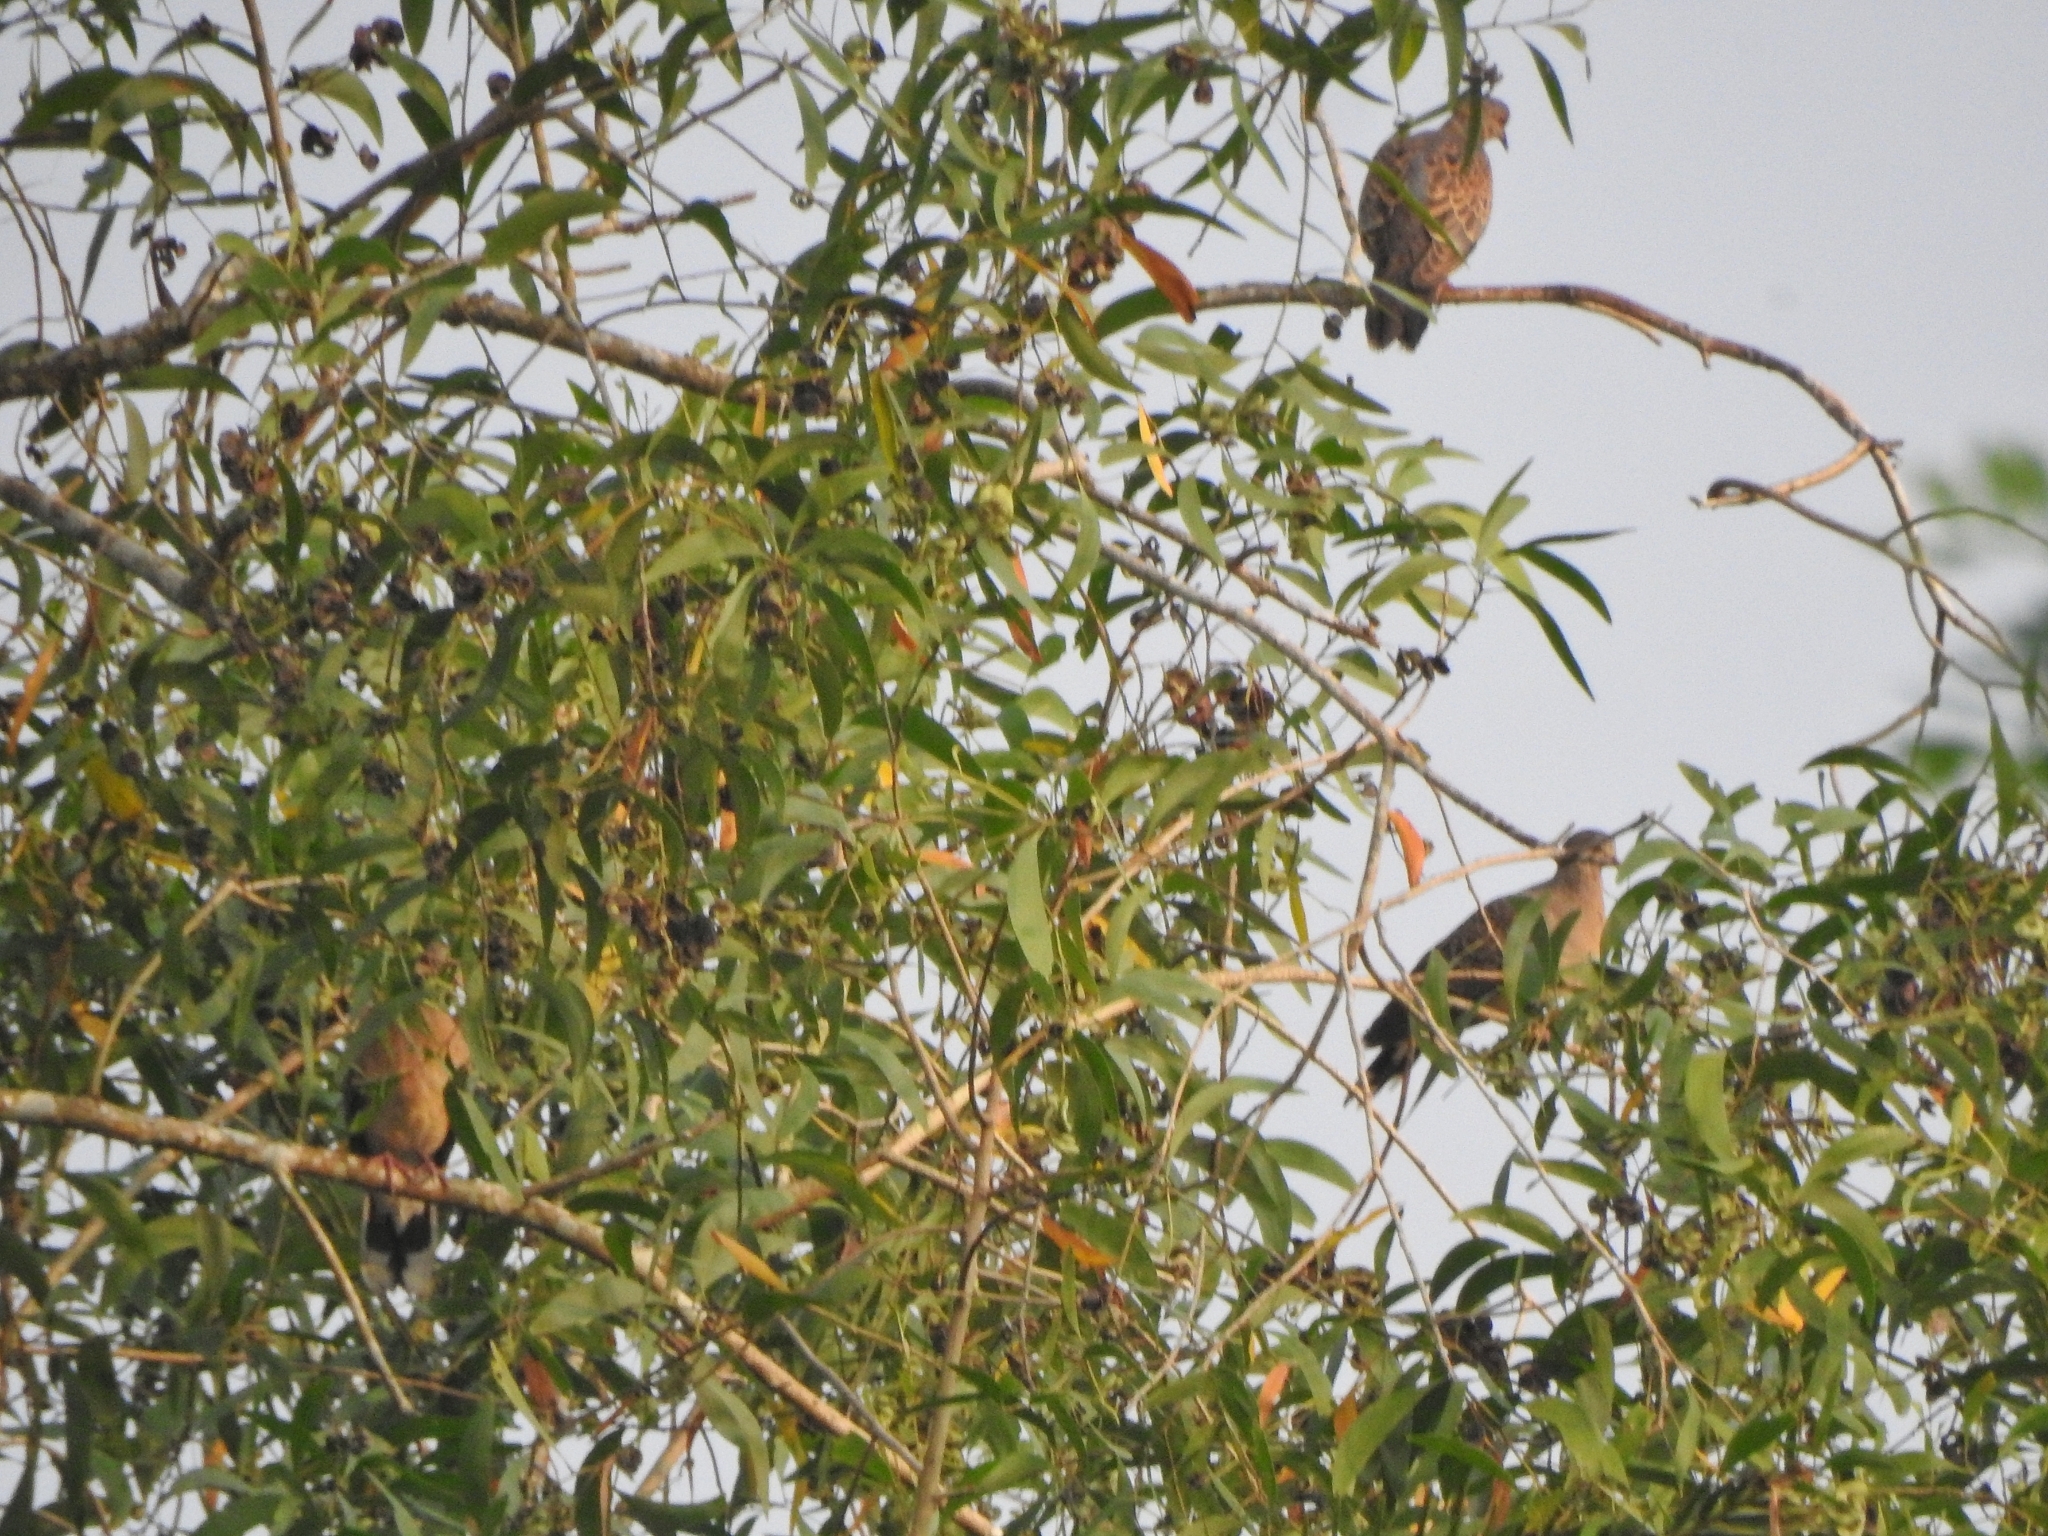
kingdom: Animalia
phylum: Chordata
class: Aves
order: Columbiformes
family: Columbidae
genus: Streptopelia
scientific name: Streptopelia orientalis
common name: Oriental turtle dove
